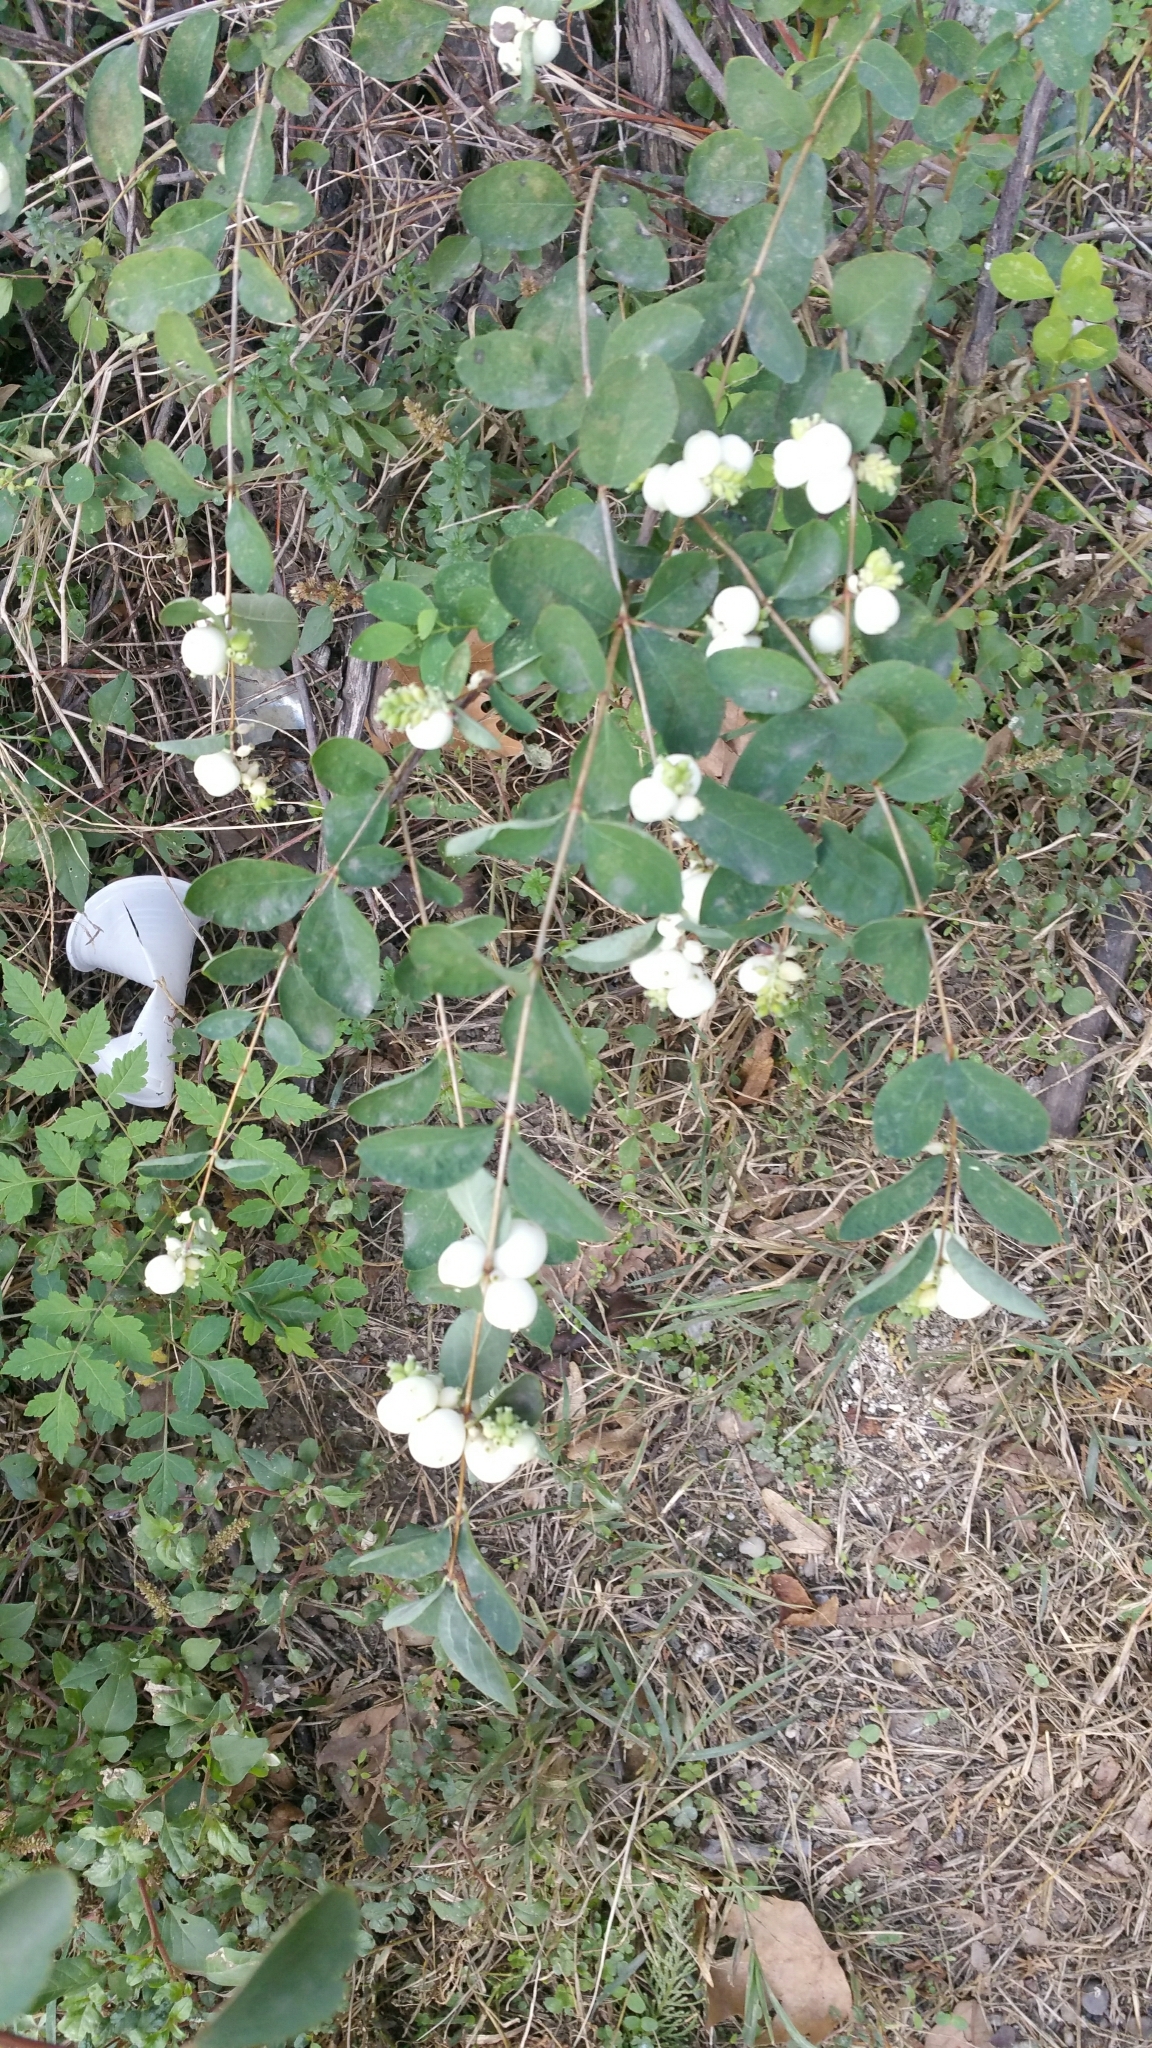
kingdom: Plantae
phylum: Tracheophyta
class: Magnoliopsida
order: Dipsacales
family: Caprifoliaceae
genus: Symphoricarpos
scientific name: Symphoricarpos albus
